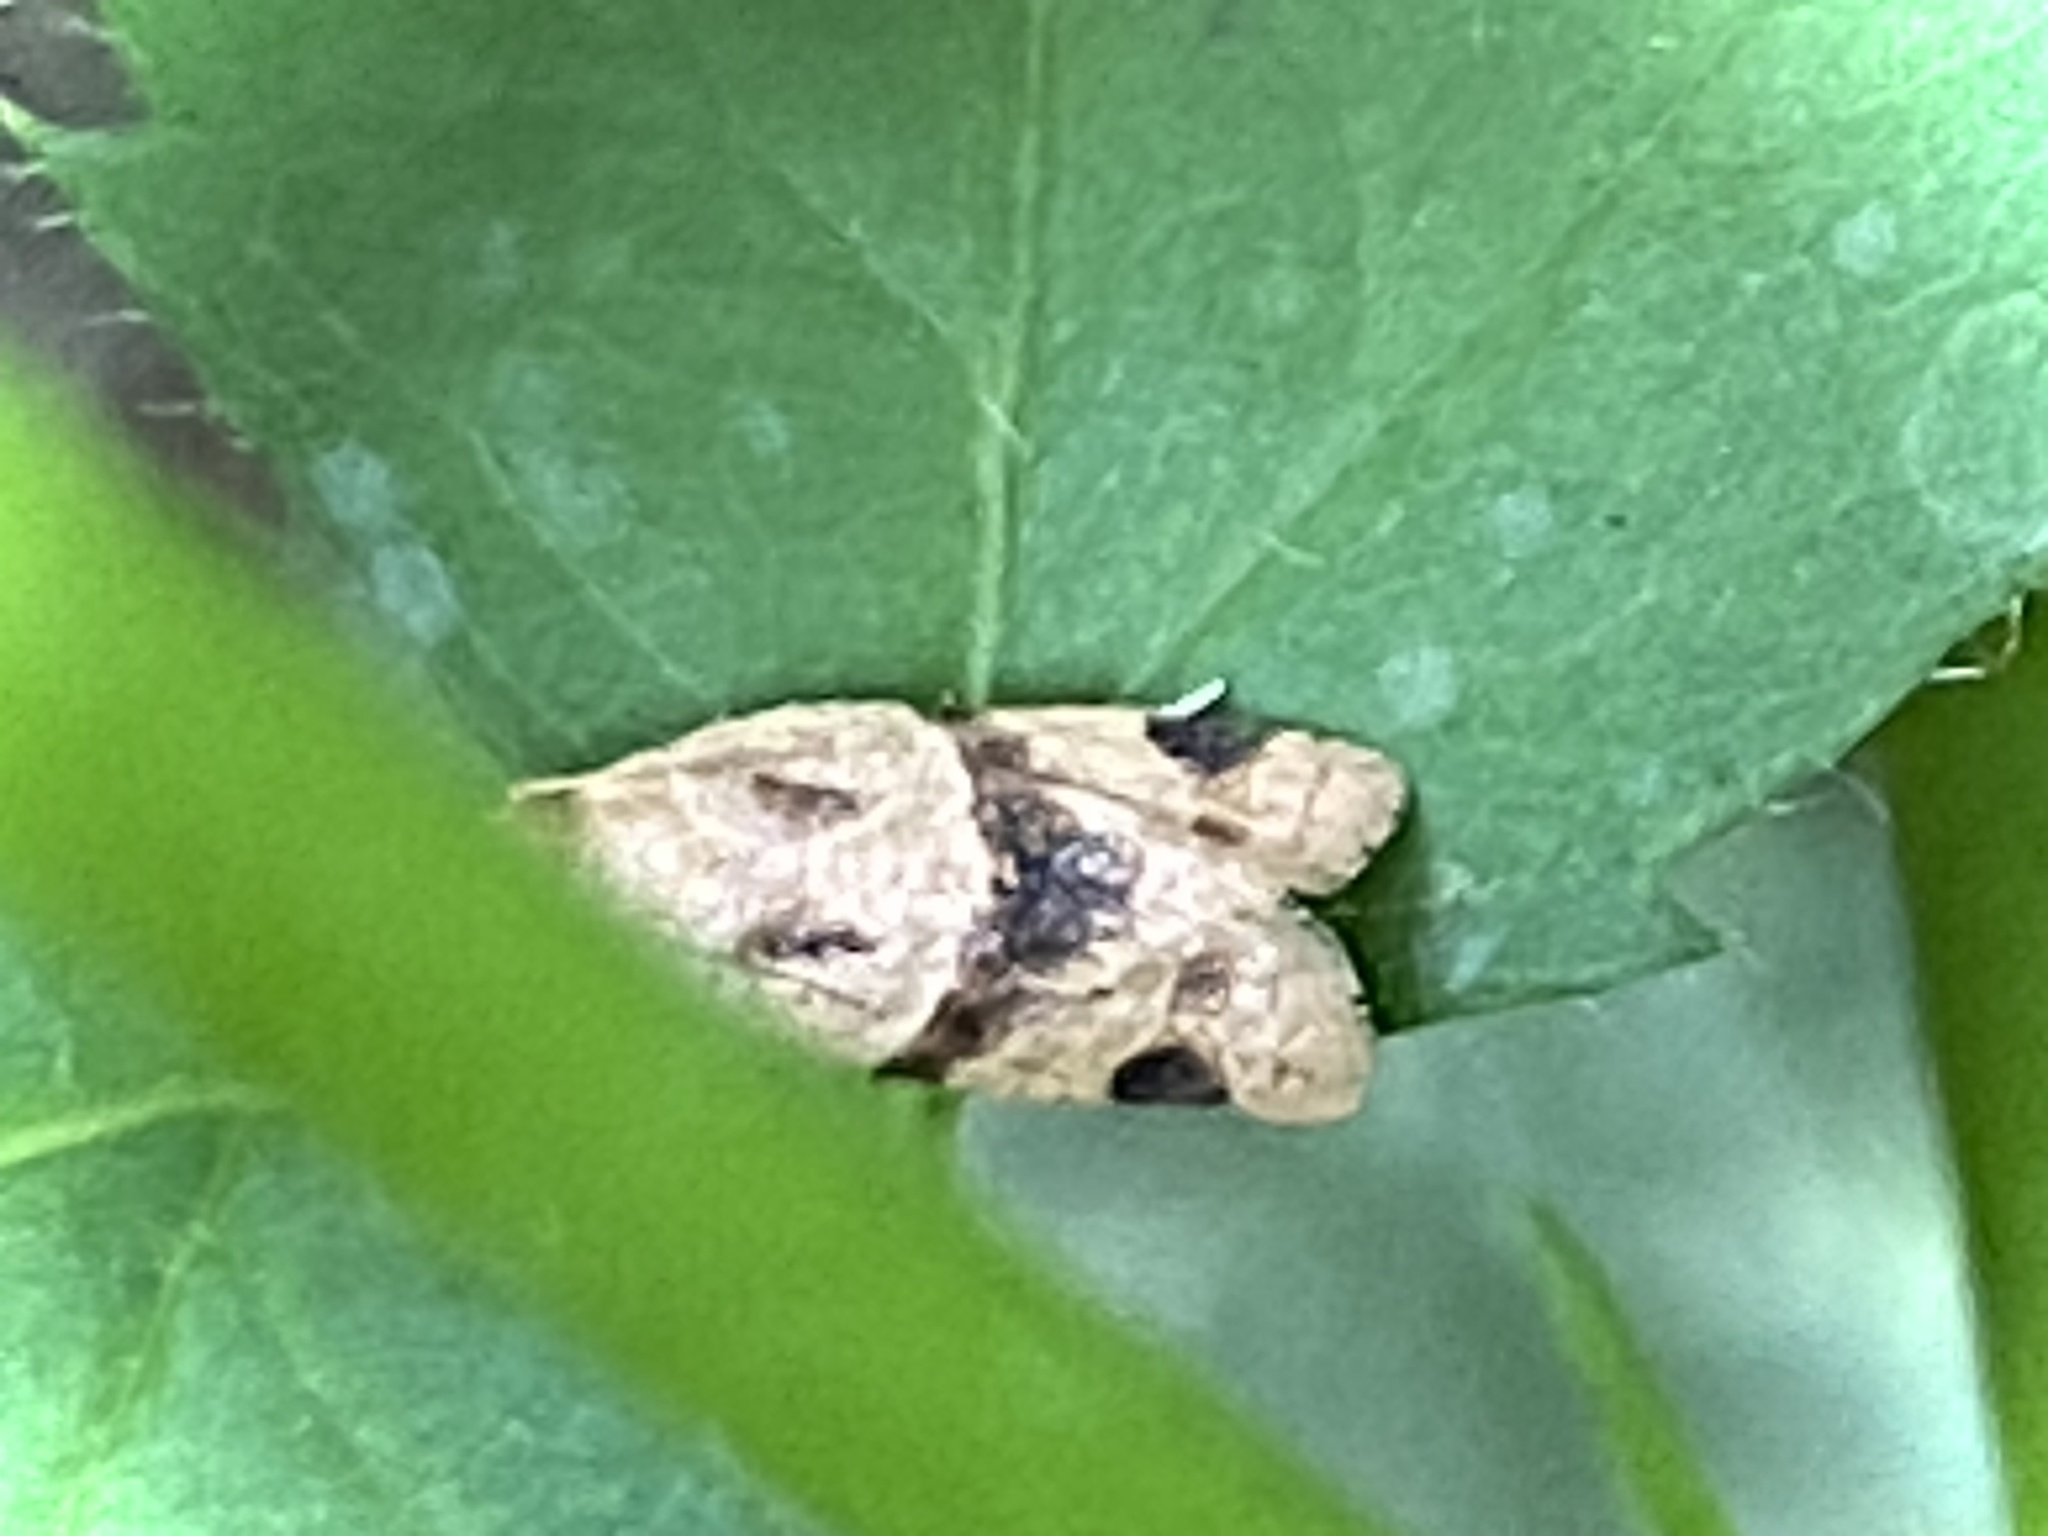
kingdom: Animalia
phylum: Arthropoda
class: Insecta
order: Lepidoptera
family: Tortricidae
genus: Clepsis
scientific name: Clepsis peritana
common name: Garden tortrix
